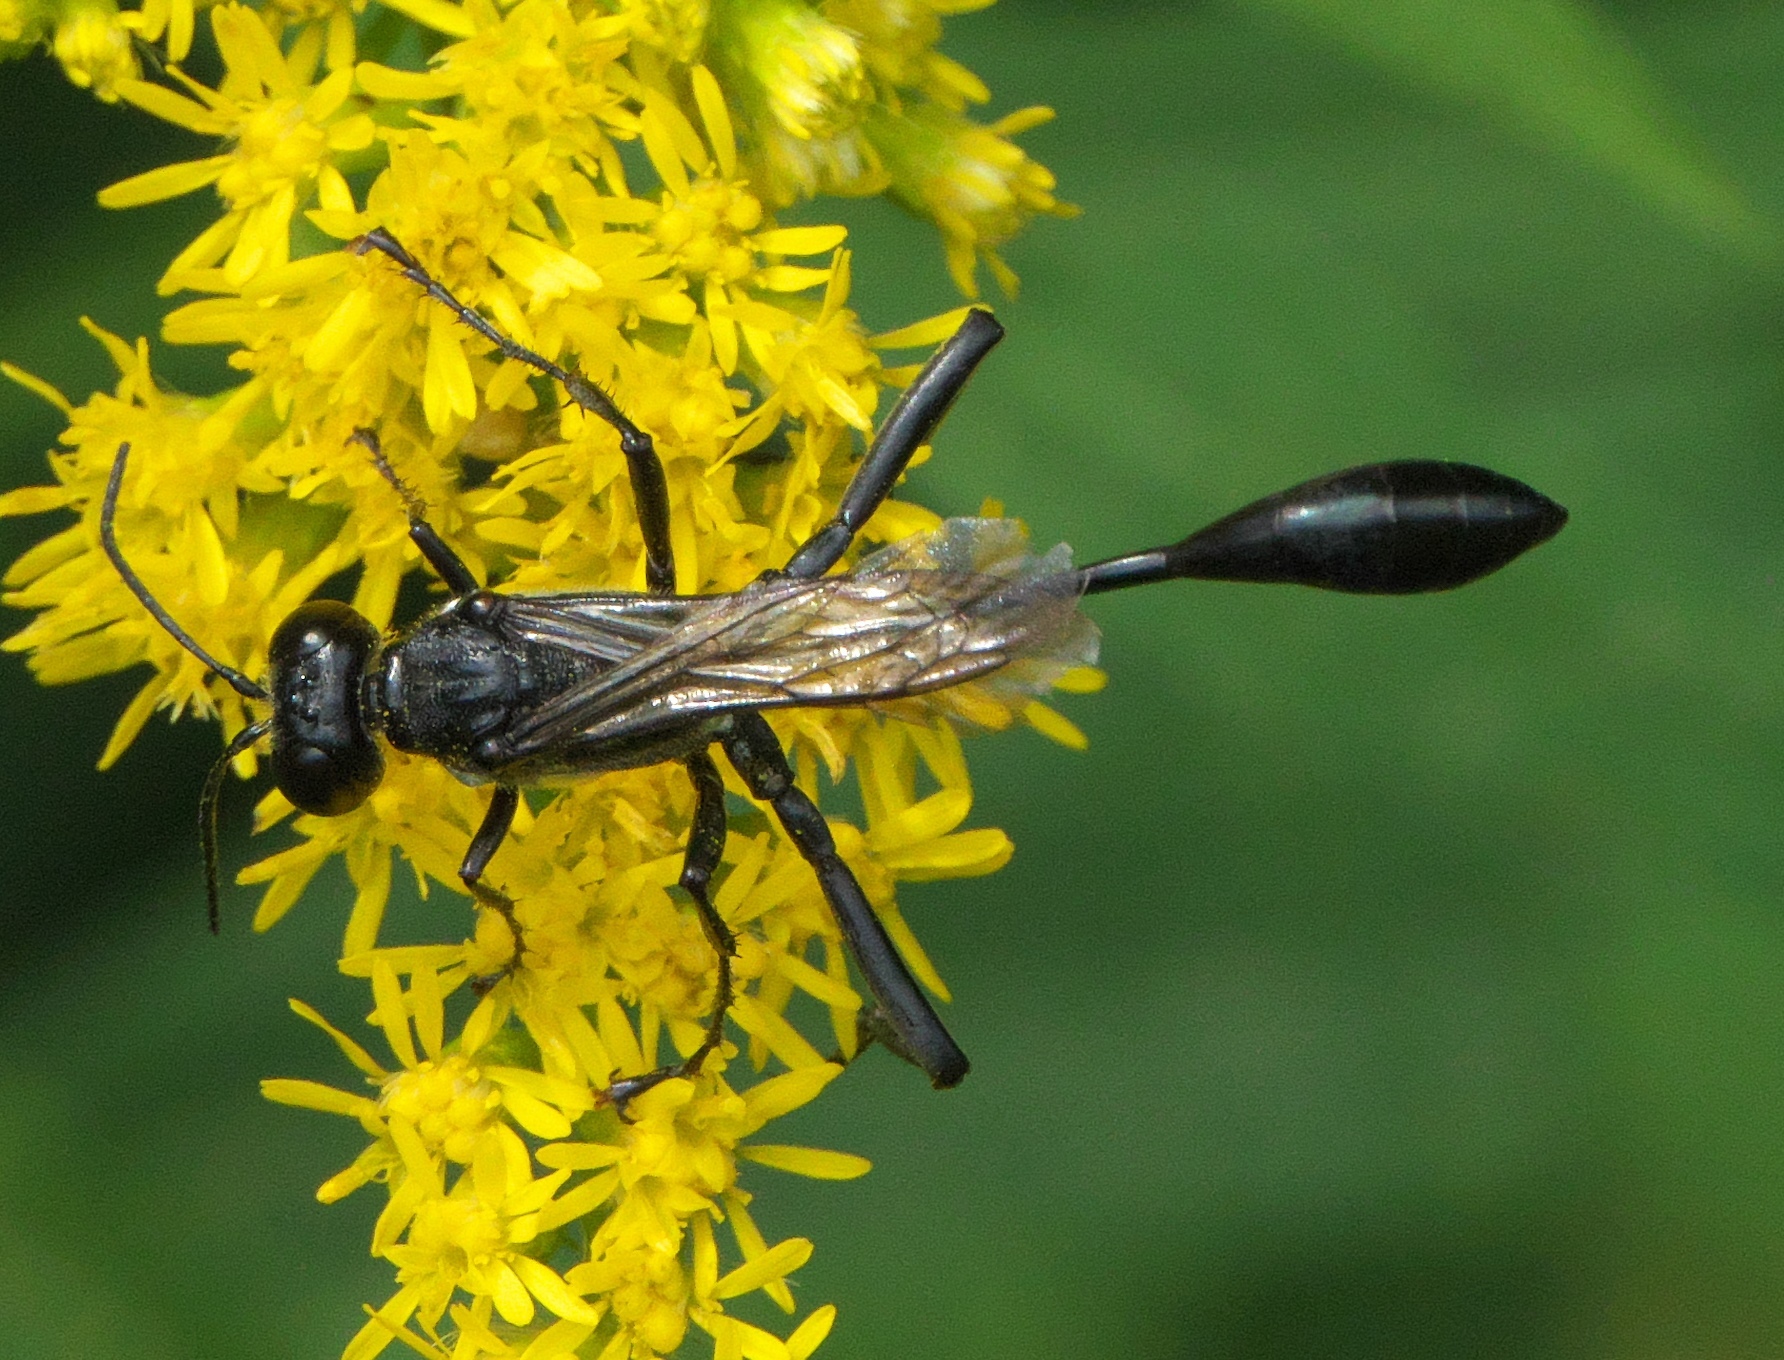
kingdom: Animalia
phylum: Arthropoda
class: Insecta
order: Hymenoptera
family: Sphecidae
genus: Eremnophila
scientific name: Eremnophila aureonotata
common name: Gold-marked thread-waisted wasp
